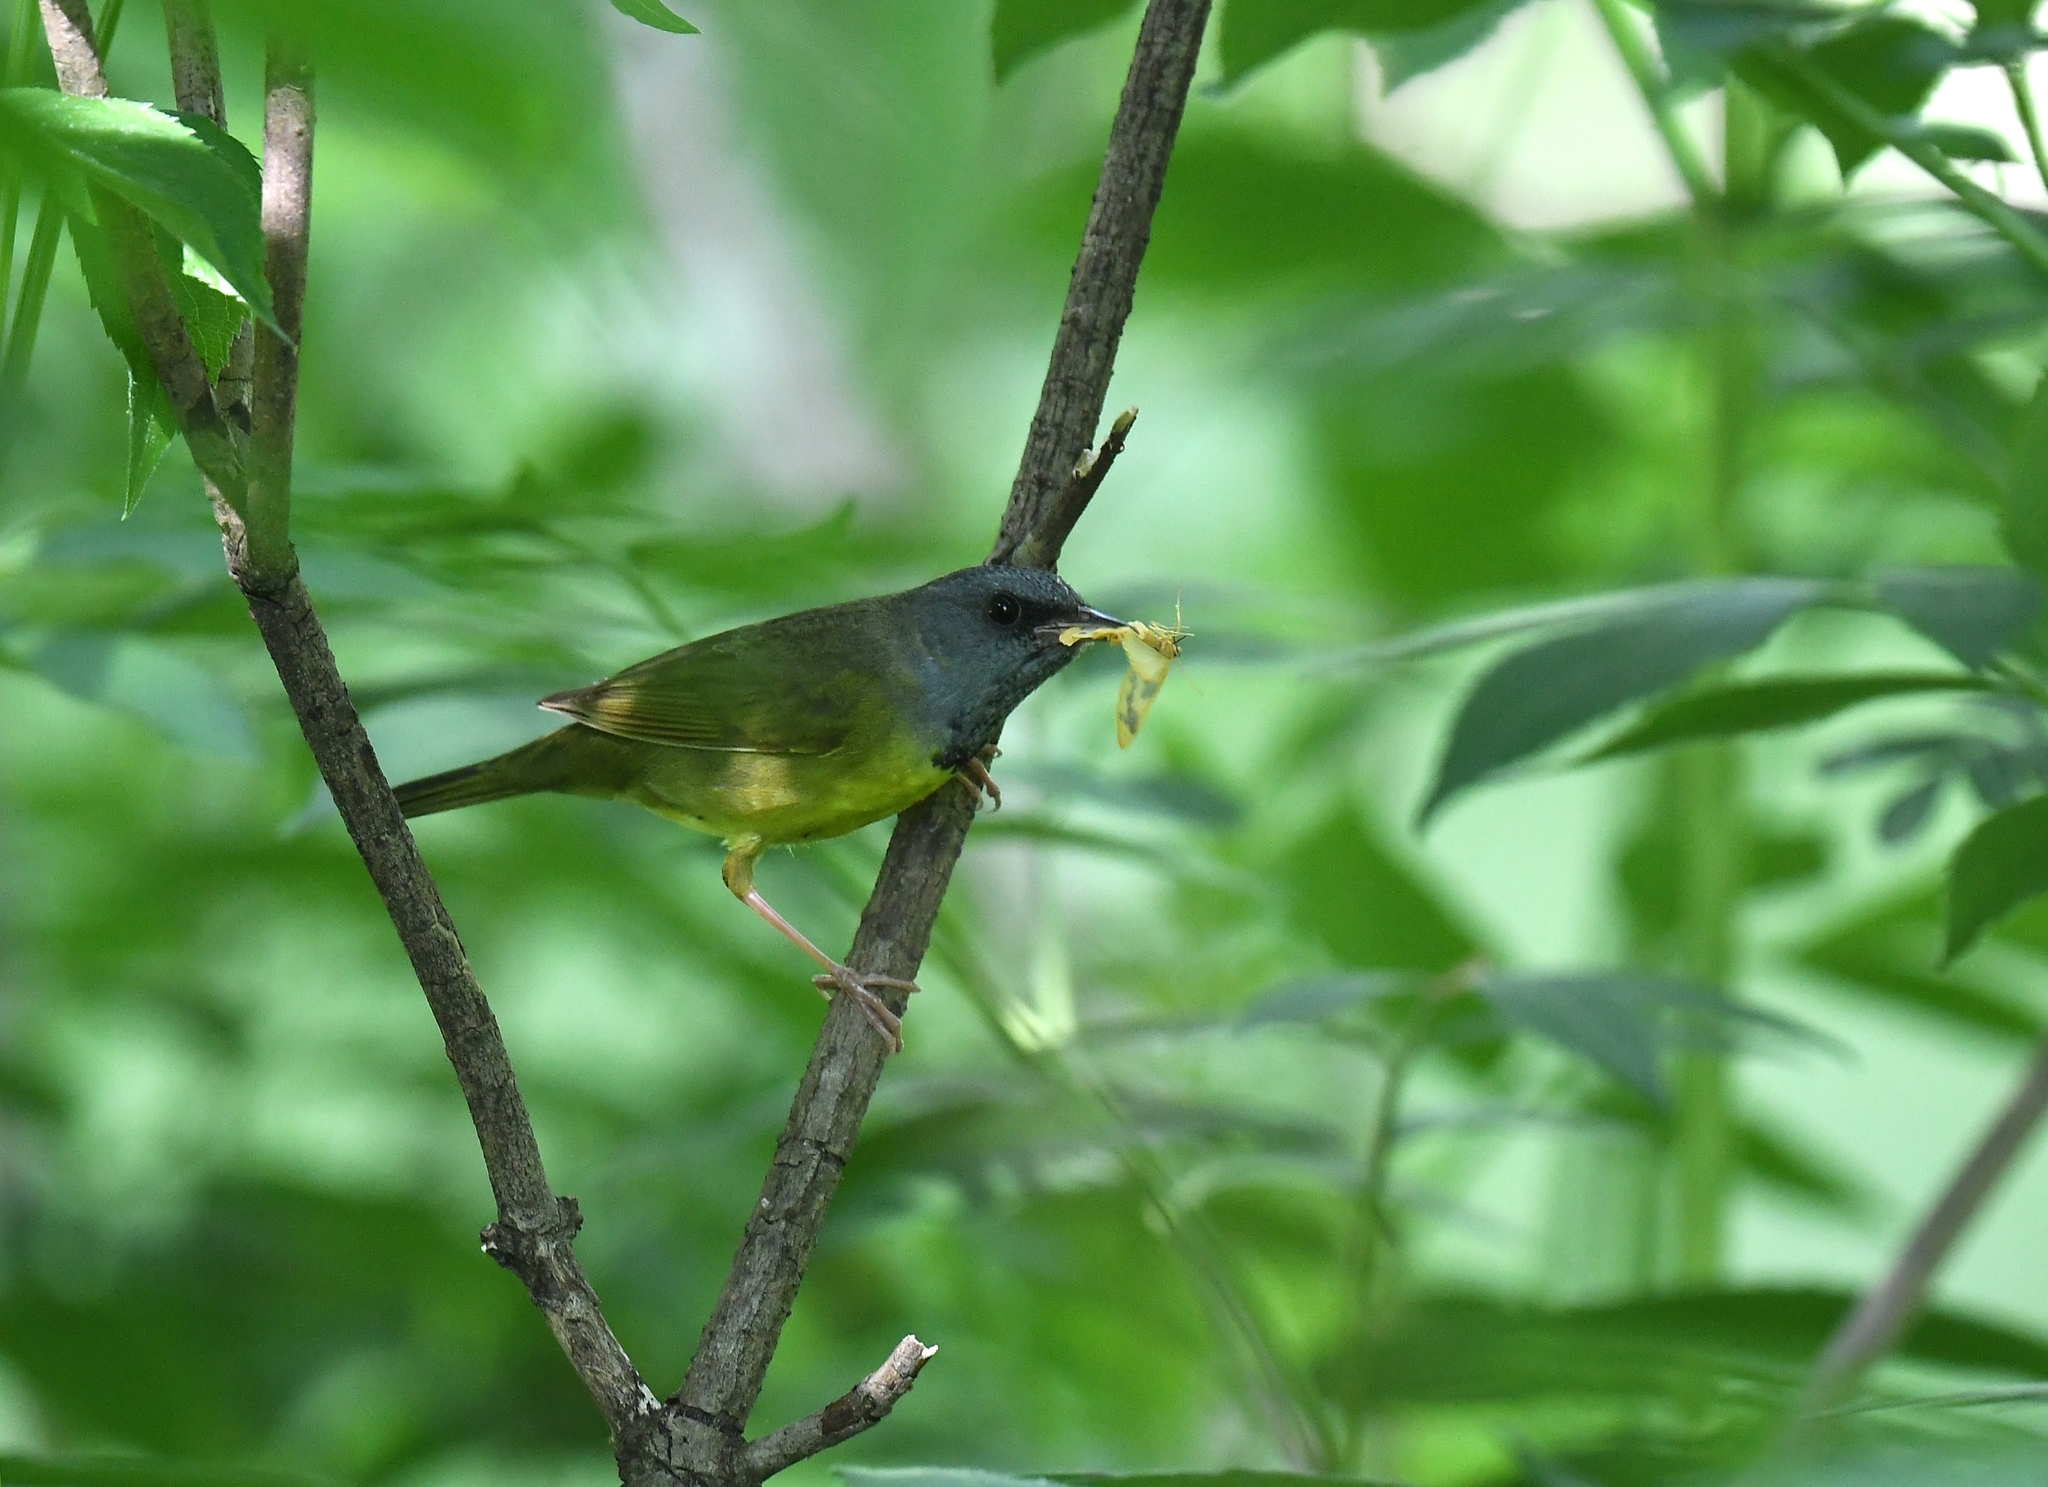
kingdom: Animalia
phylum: Chordata
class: Aves
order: Passeriformes
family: Parulidae
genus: Geothlypis
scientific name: Geothlypis philadelphia
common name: Mourning warbler
